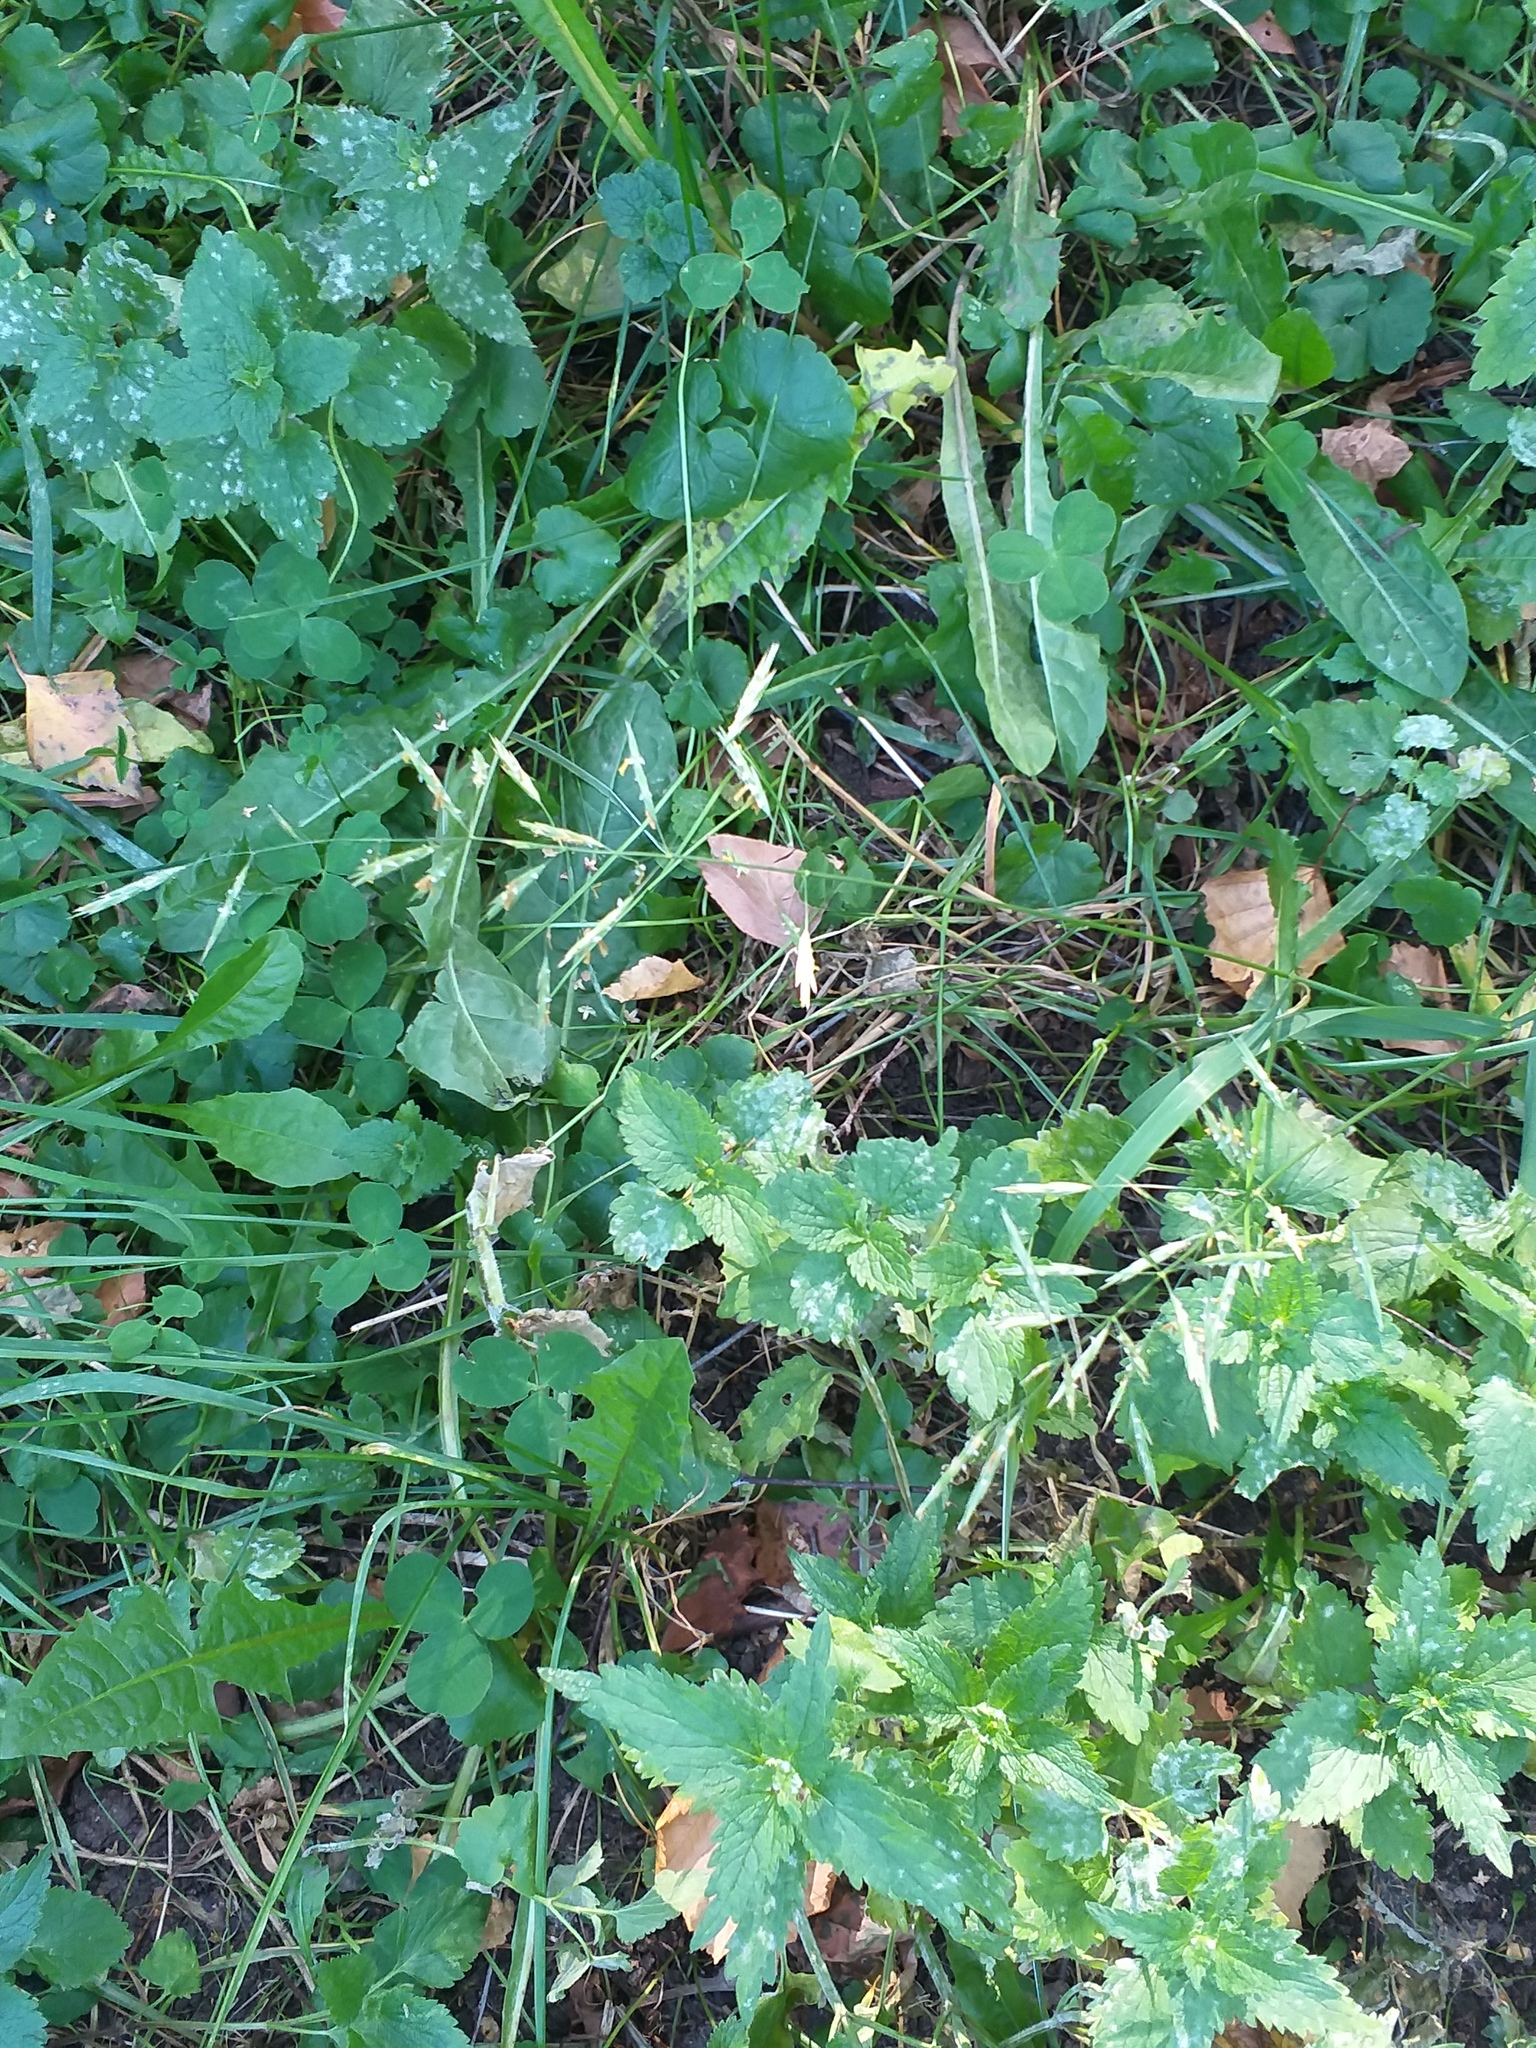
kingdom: Plantae
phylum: Tracheophyta
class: Liliopsida
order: Poales
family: Poaceae
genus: Bromus
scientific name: Bromus inermis
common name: Smooth brome
